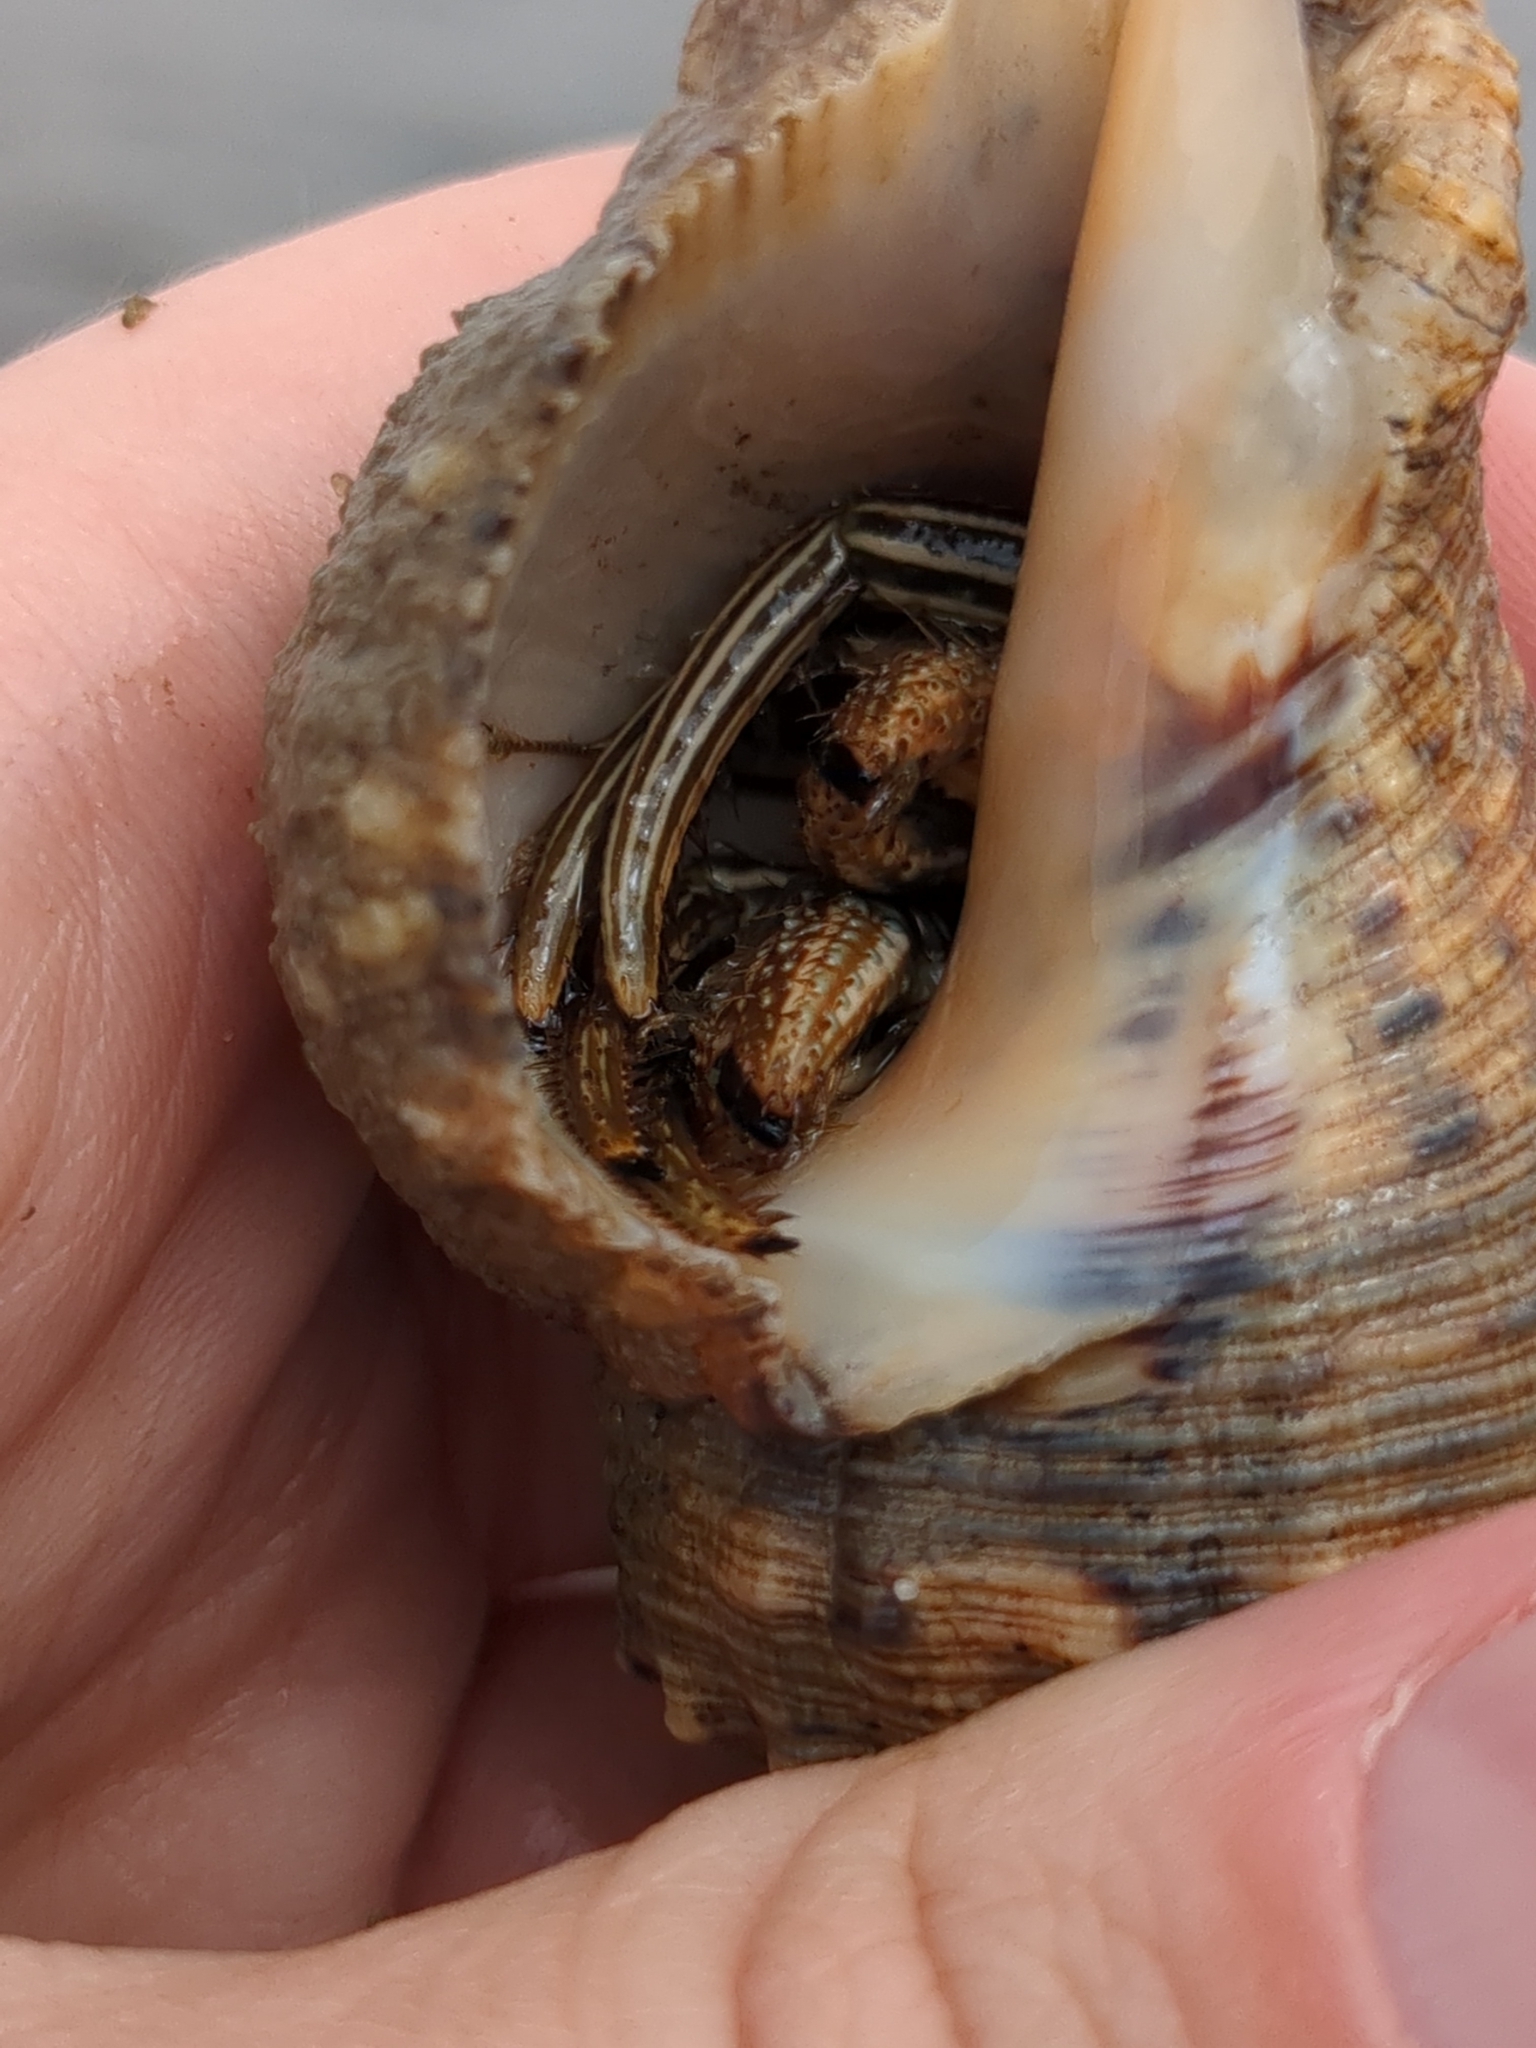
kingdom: Animalia
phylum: Arthropoda
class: Malacostraca
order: Decapoda
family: Diogenidae
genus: Clibanarius
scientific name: Clibanarius vittatus
